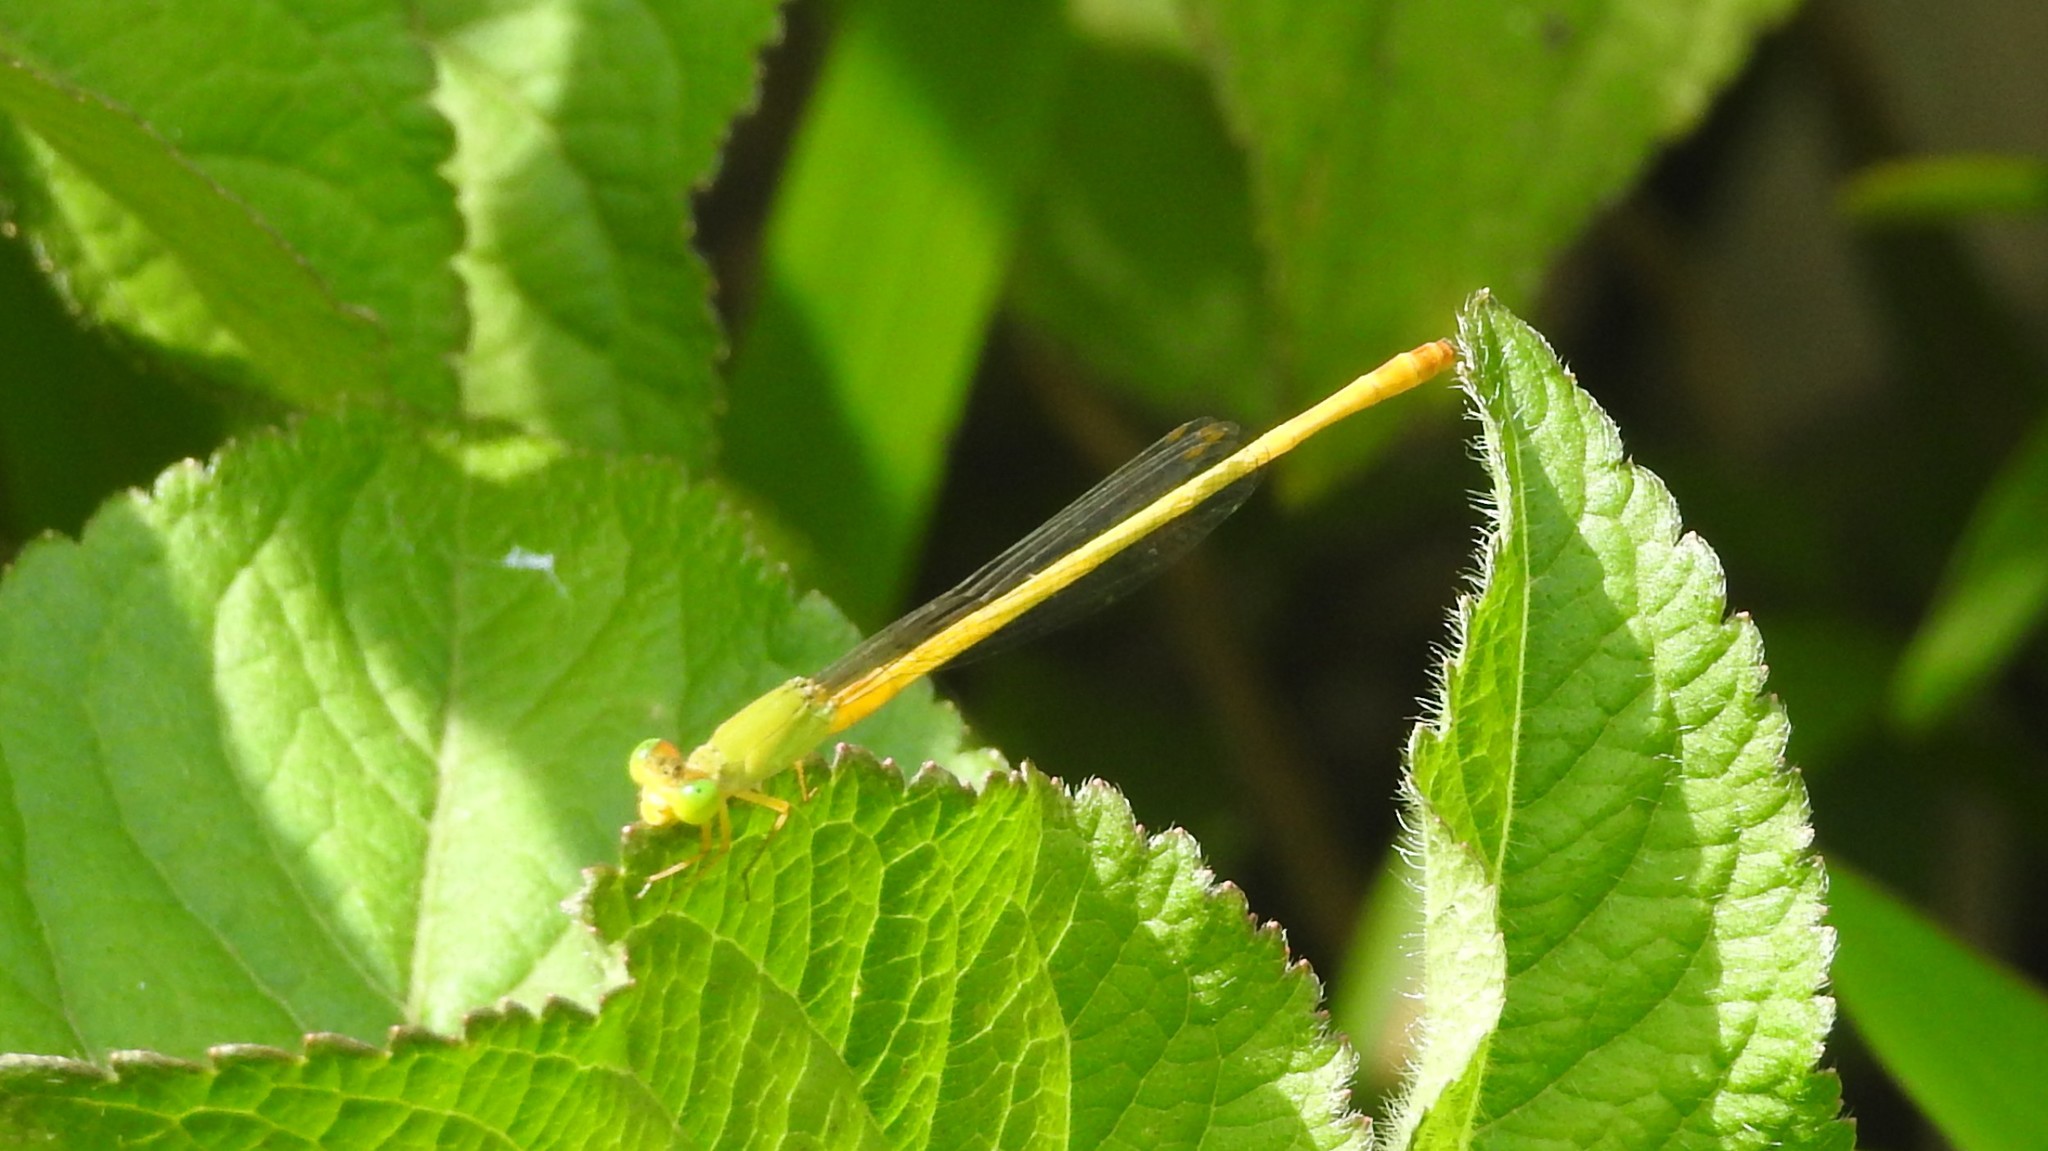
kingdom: Animalia
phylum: Arthropoda
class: Insecta
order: Odonata
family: Coenagrionidae
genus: Ceriagrion
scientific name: Ceriagrion coromandelianum
